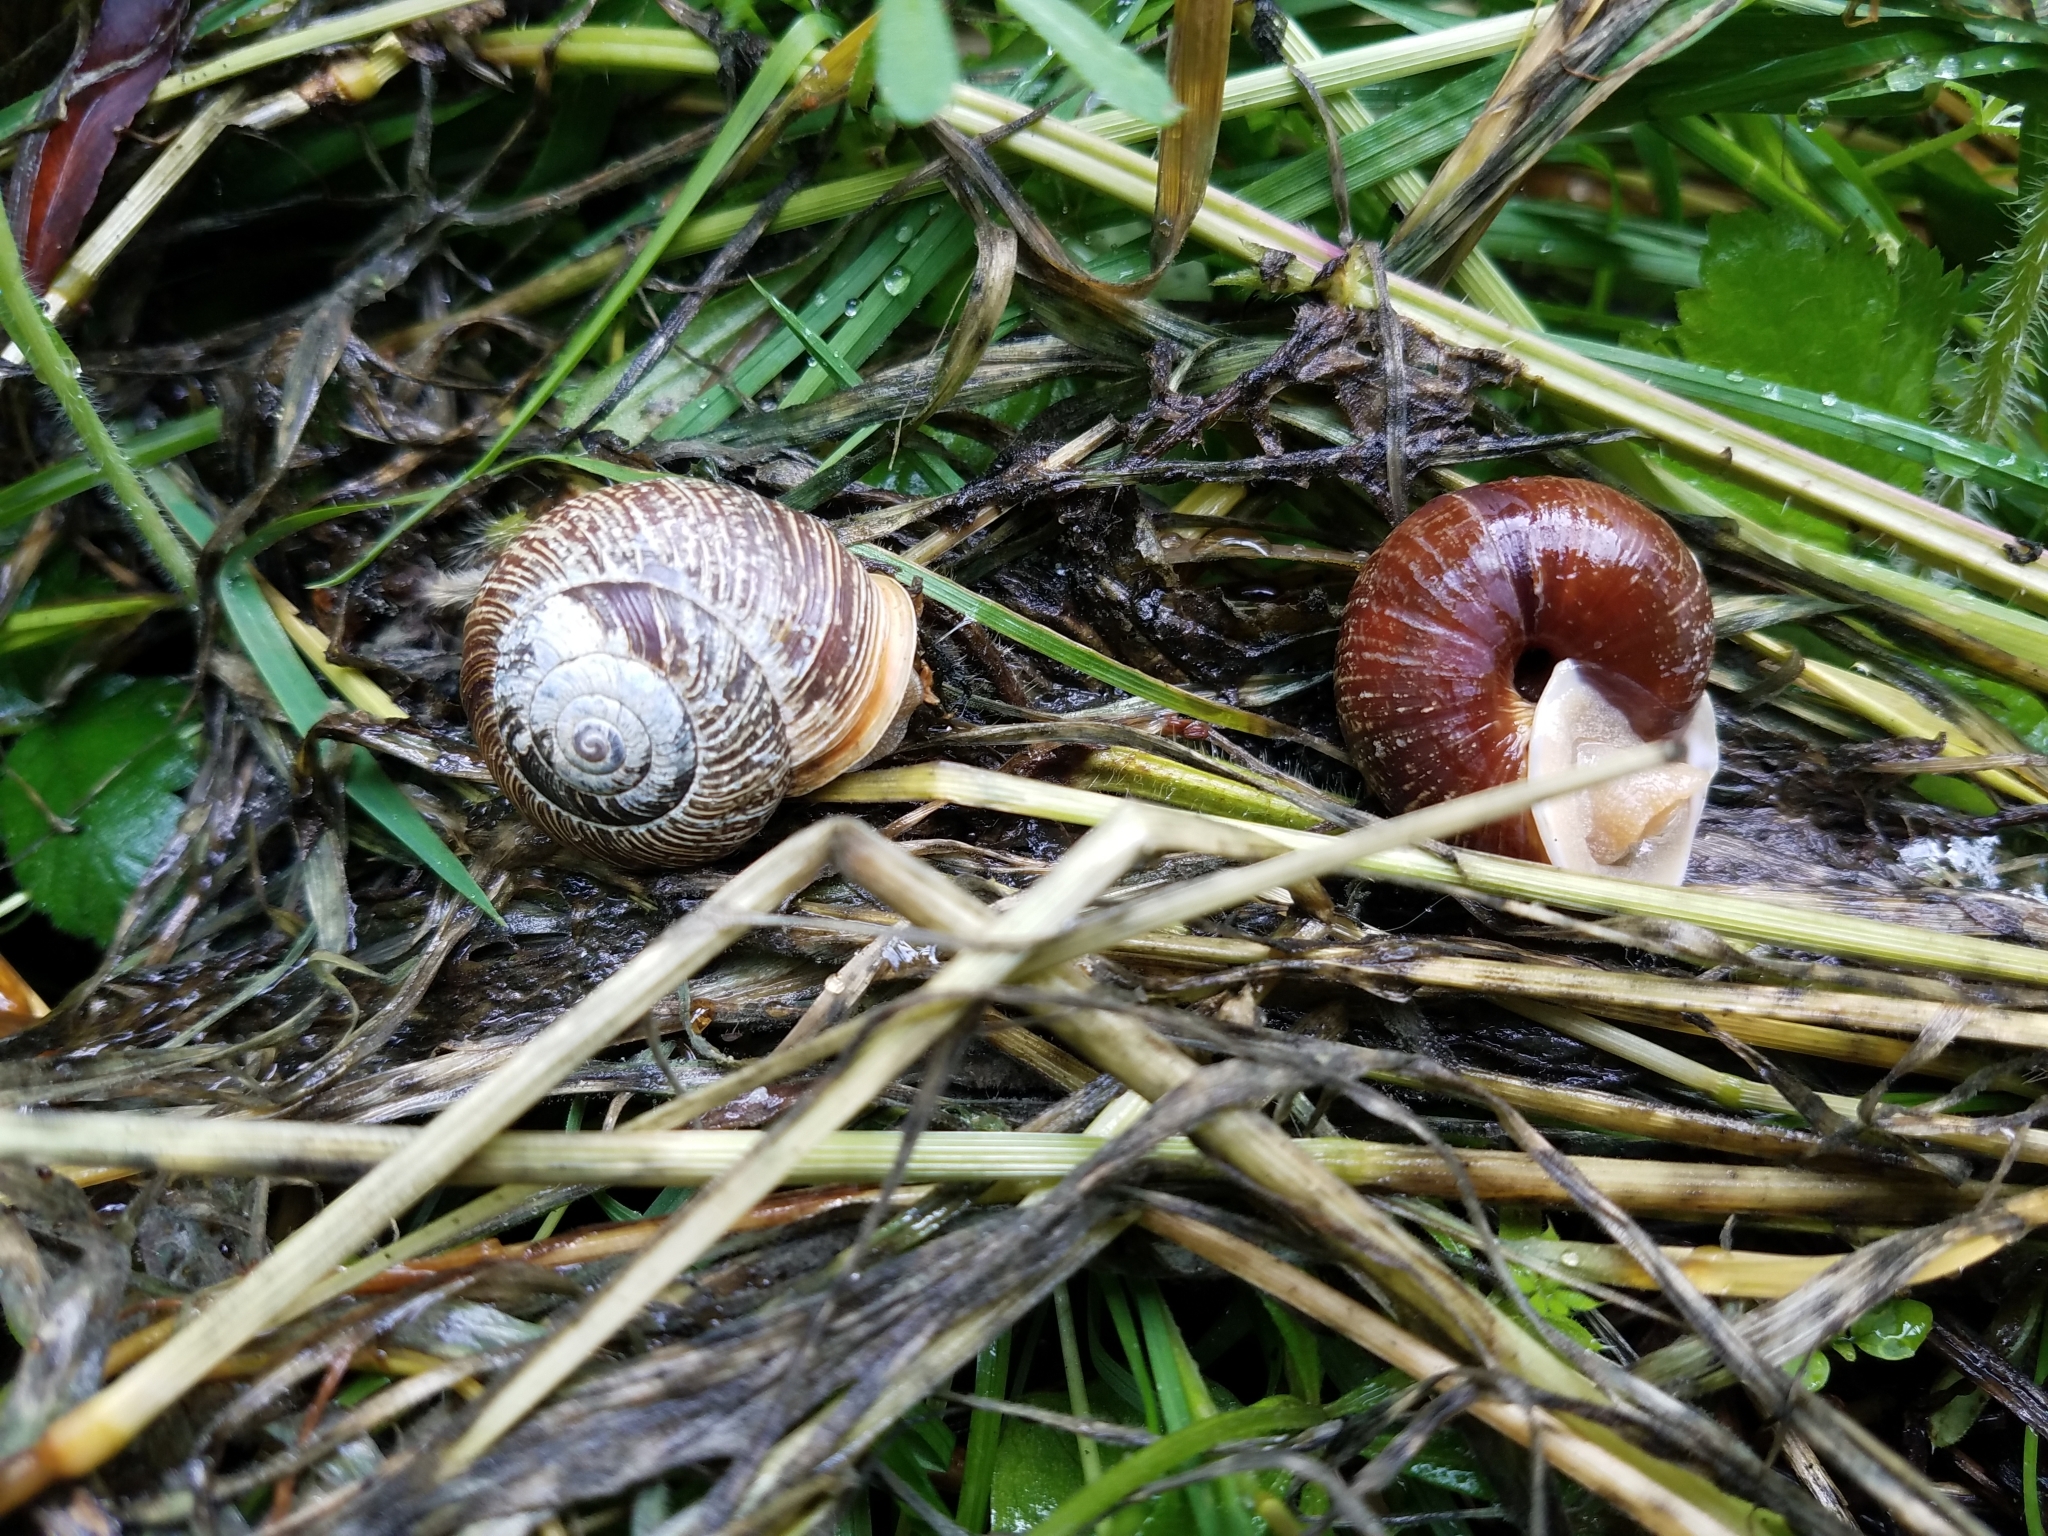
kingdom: Animalia
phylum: Mollusca
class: Gastropoda
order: Stylommatophora
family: Polygyridae
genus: Allogona
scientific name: Allogona townsendiana
